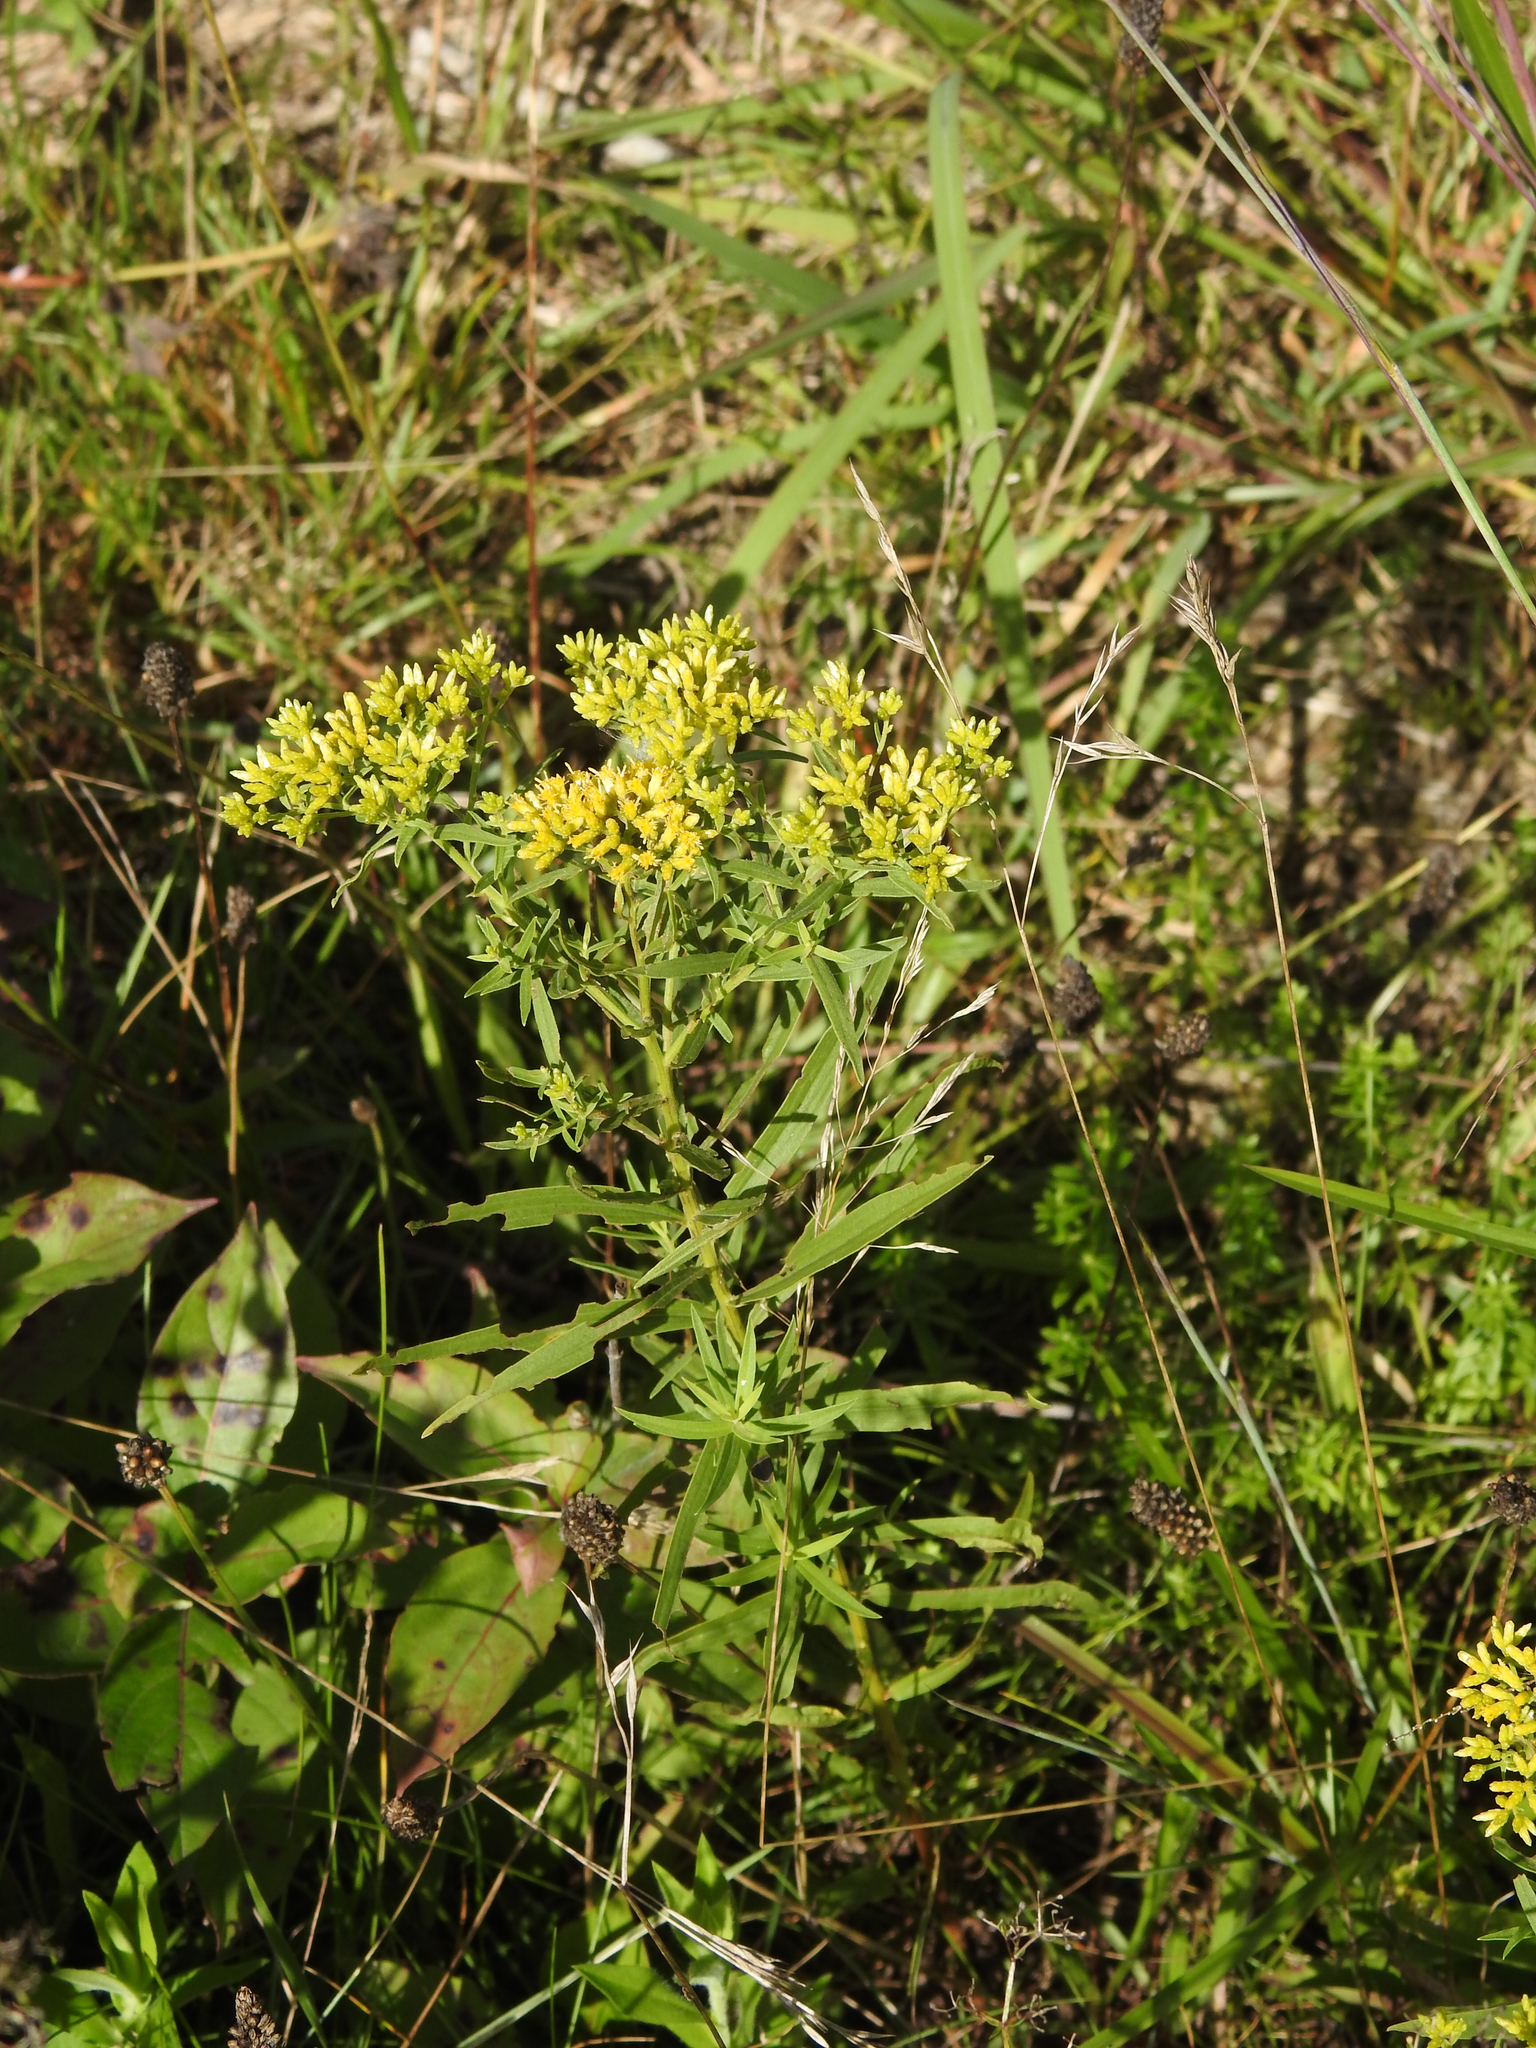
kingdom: Plantae
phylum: Tracheophyta
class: Magnoliopsida
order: Asterales
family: Asteraceae
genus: Euthamia
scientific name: Euthamia graminifolia
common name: Common goldentop
